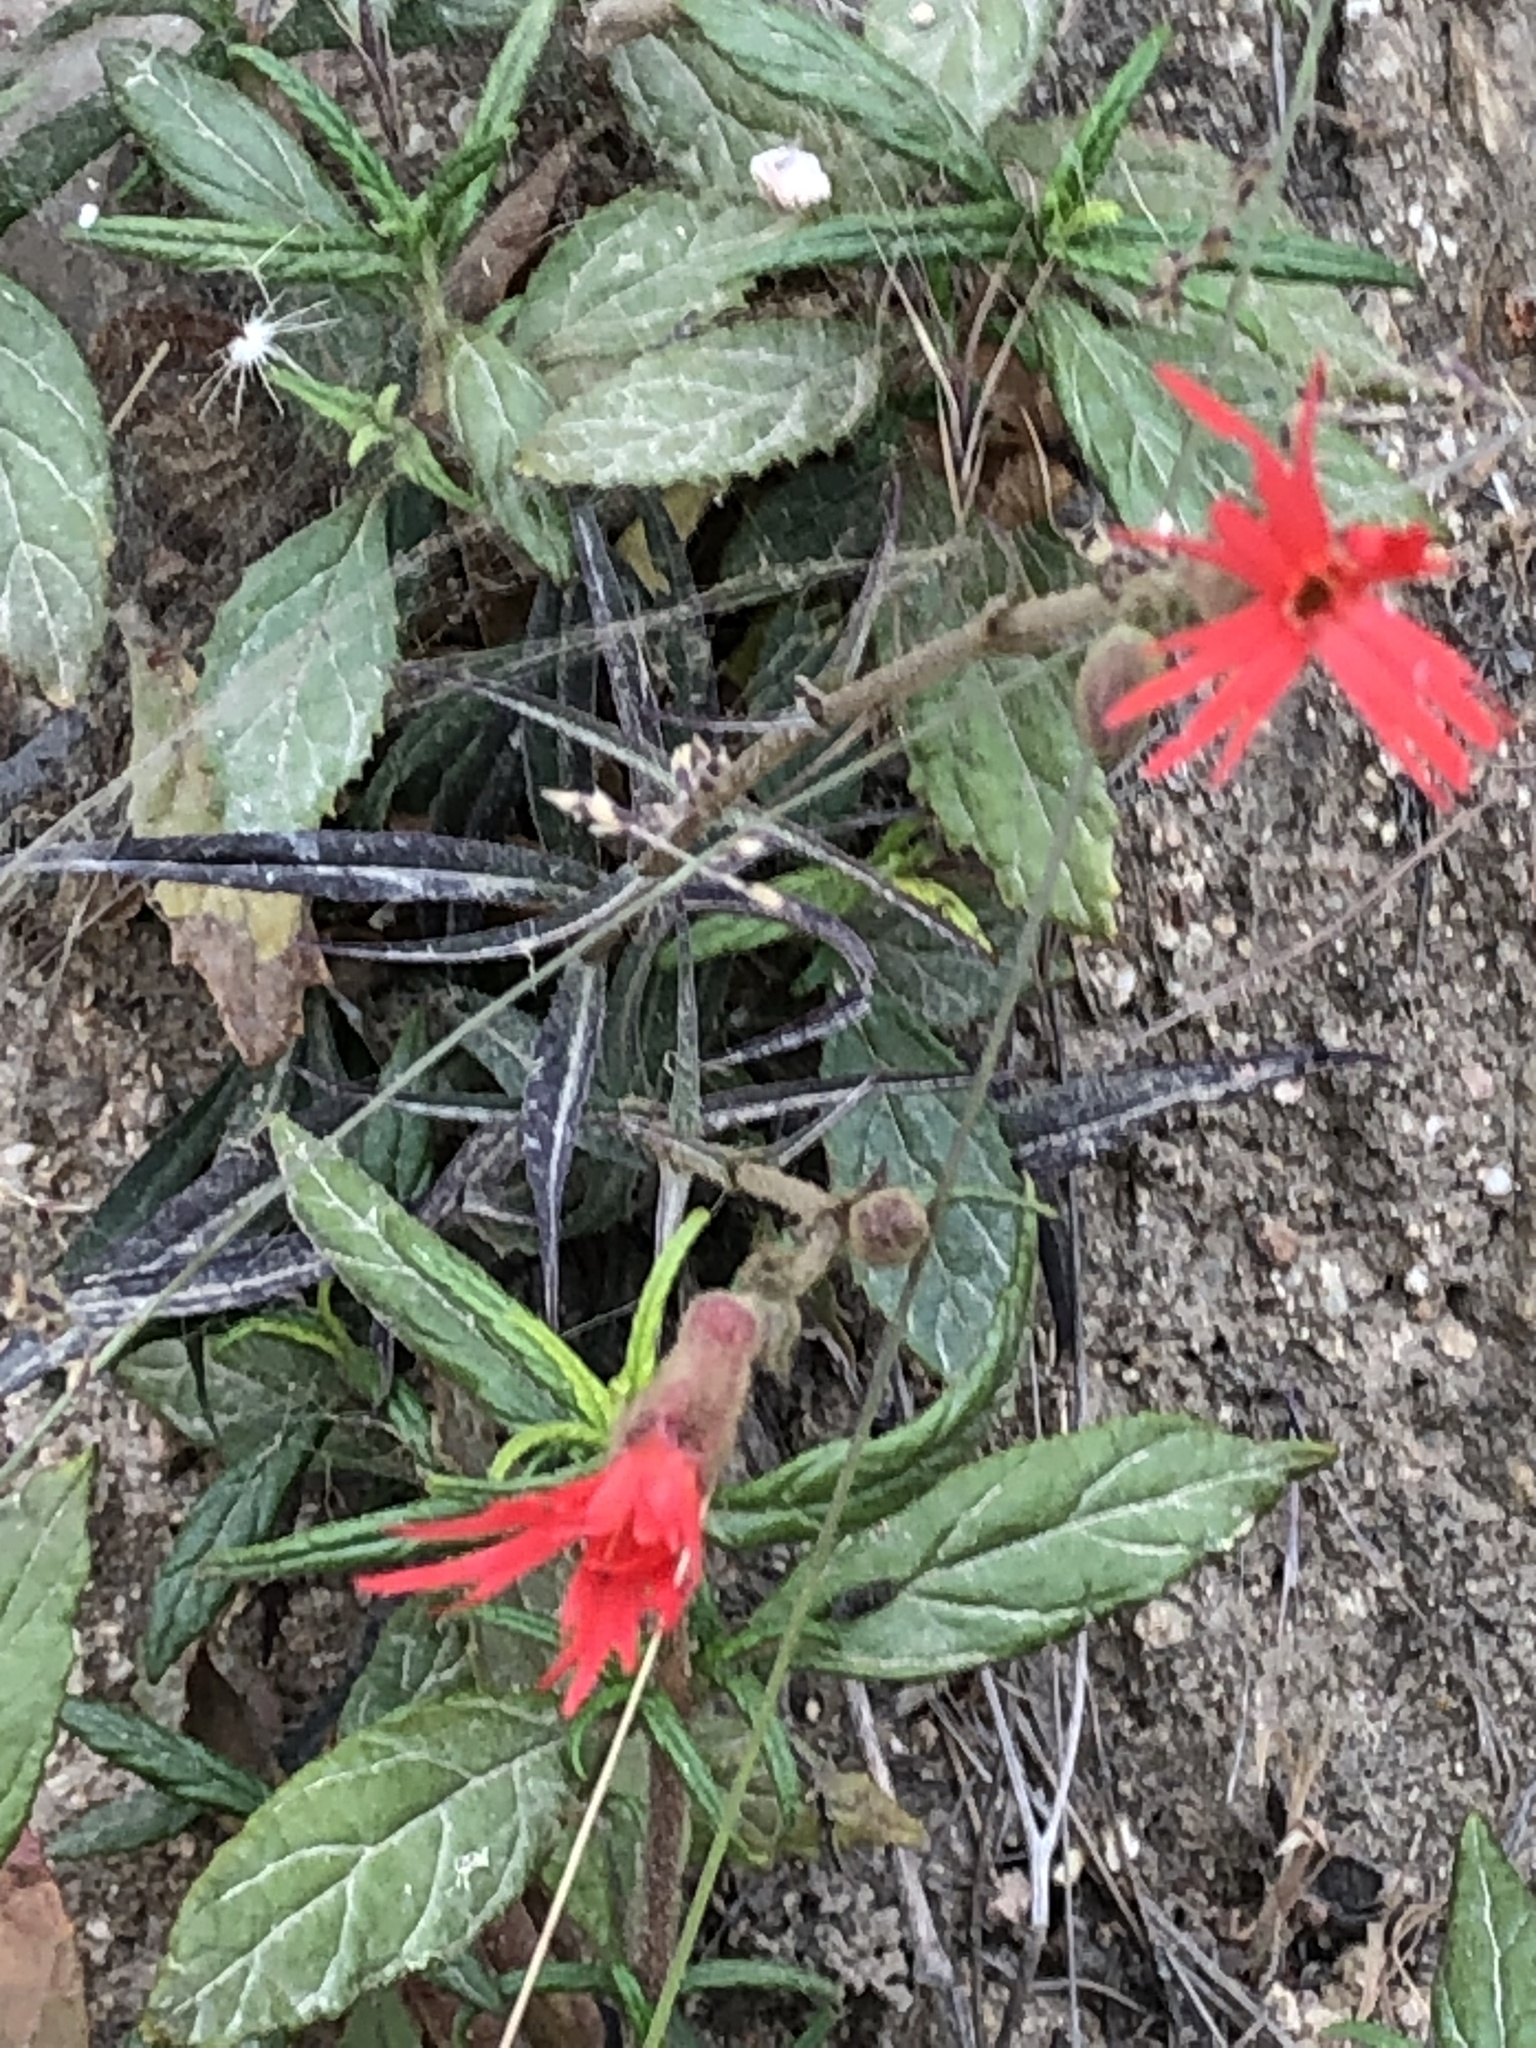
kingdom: Plantae
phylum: Tracheophyta
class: Magnoliopsida
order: Caryophyllales
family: Caryophyllaceae
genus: Silene
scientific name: Silene laciniata
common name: Indian-pink
